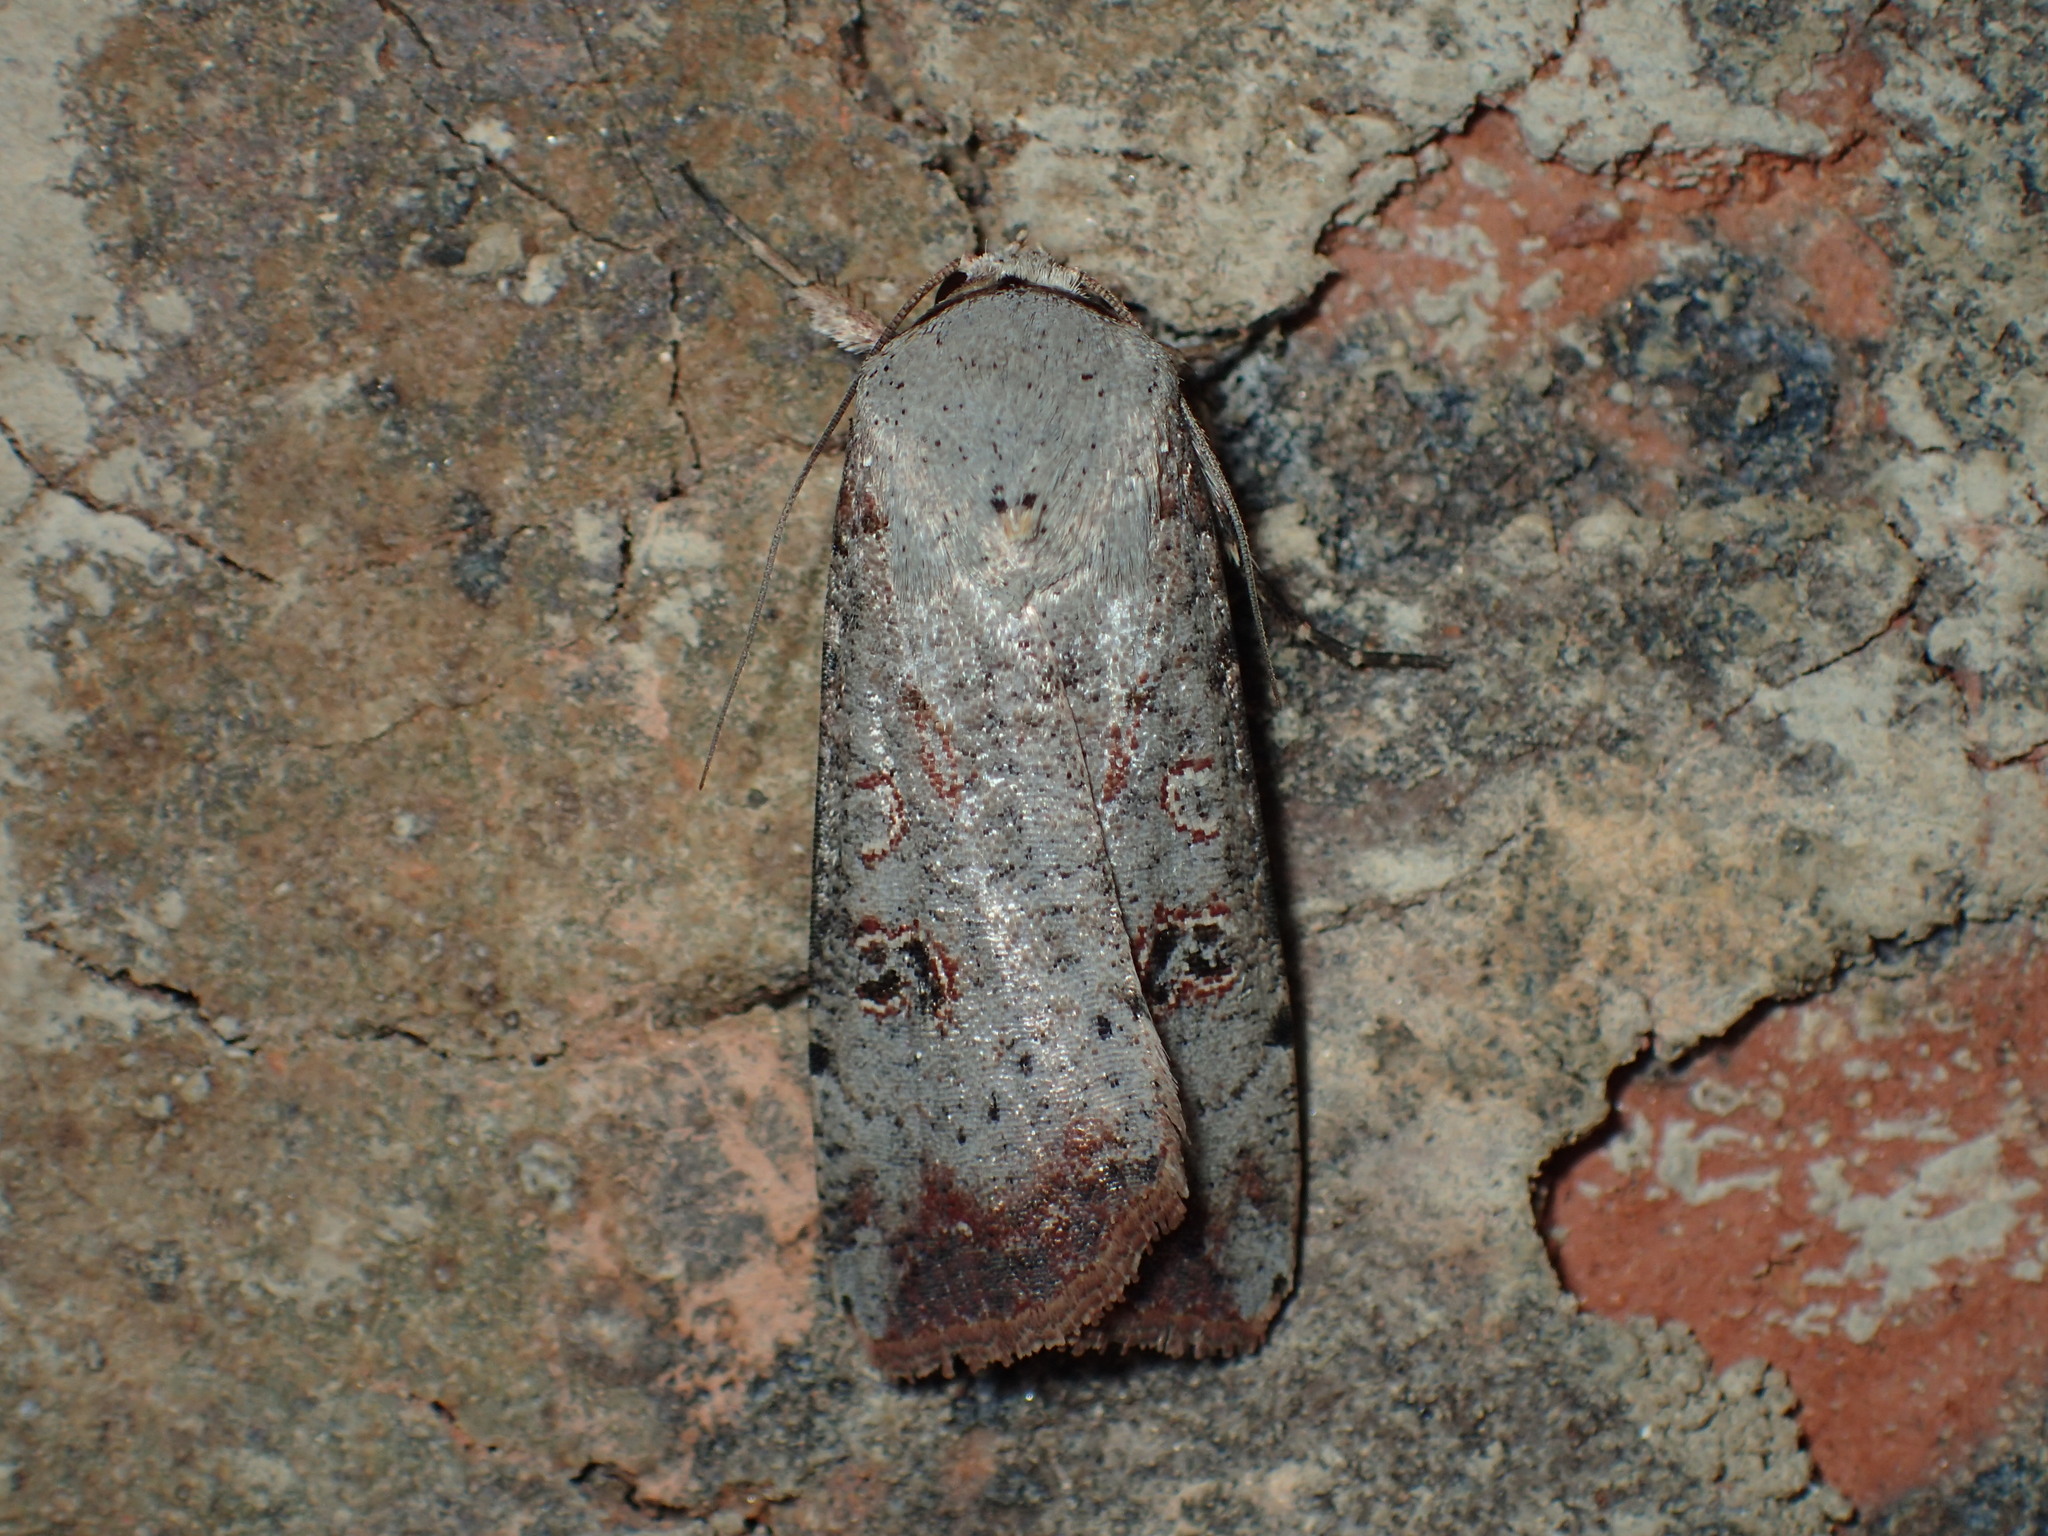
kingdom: Animalia
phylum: Arthropoda
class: Insecta
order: Lepidoptera
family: Noctuidae
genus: Anicla
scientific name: Anicla infecta
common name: Green cutworm
